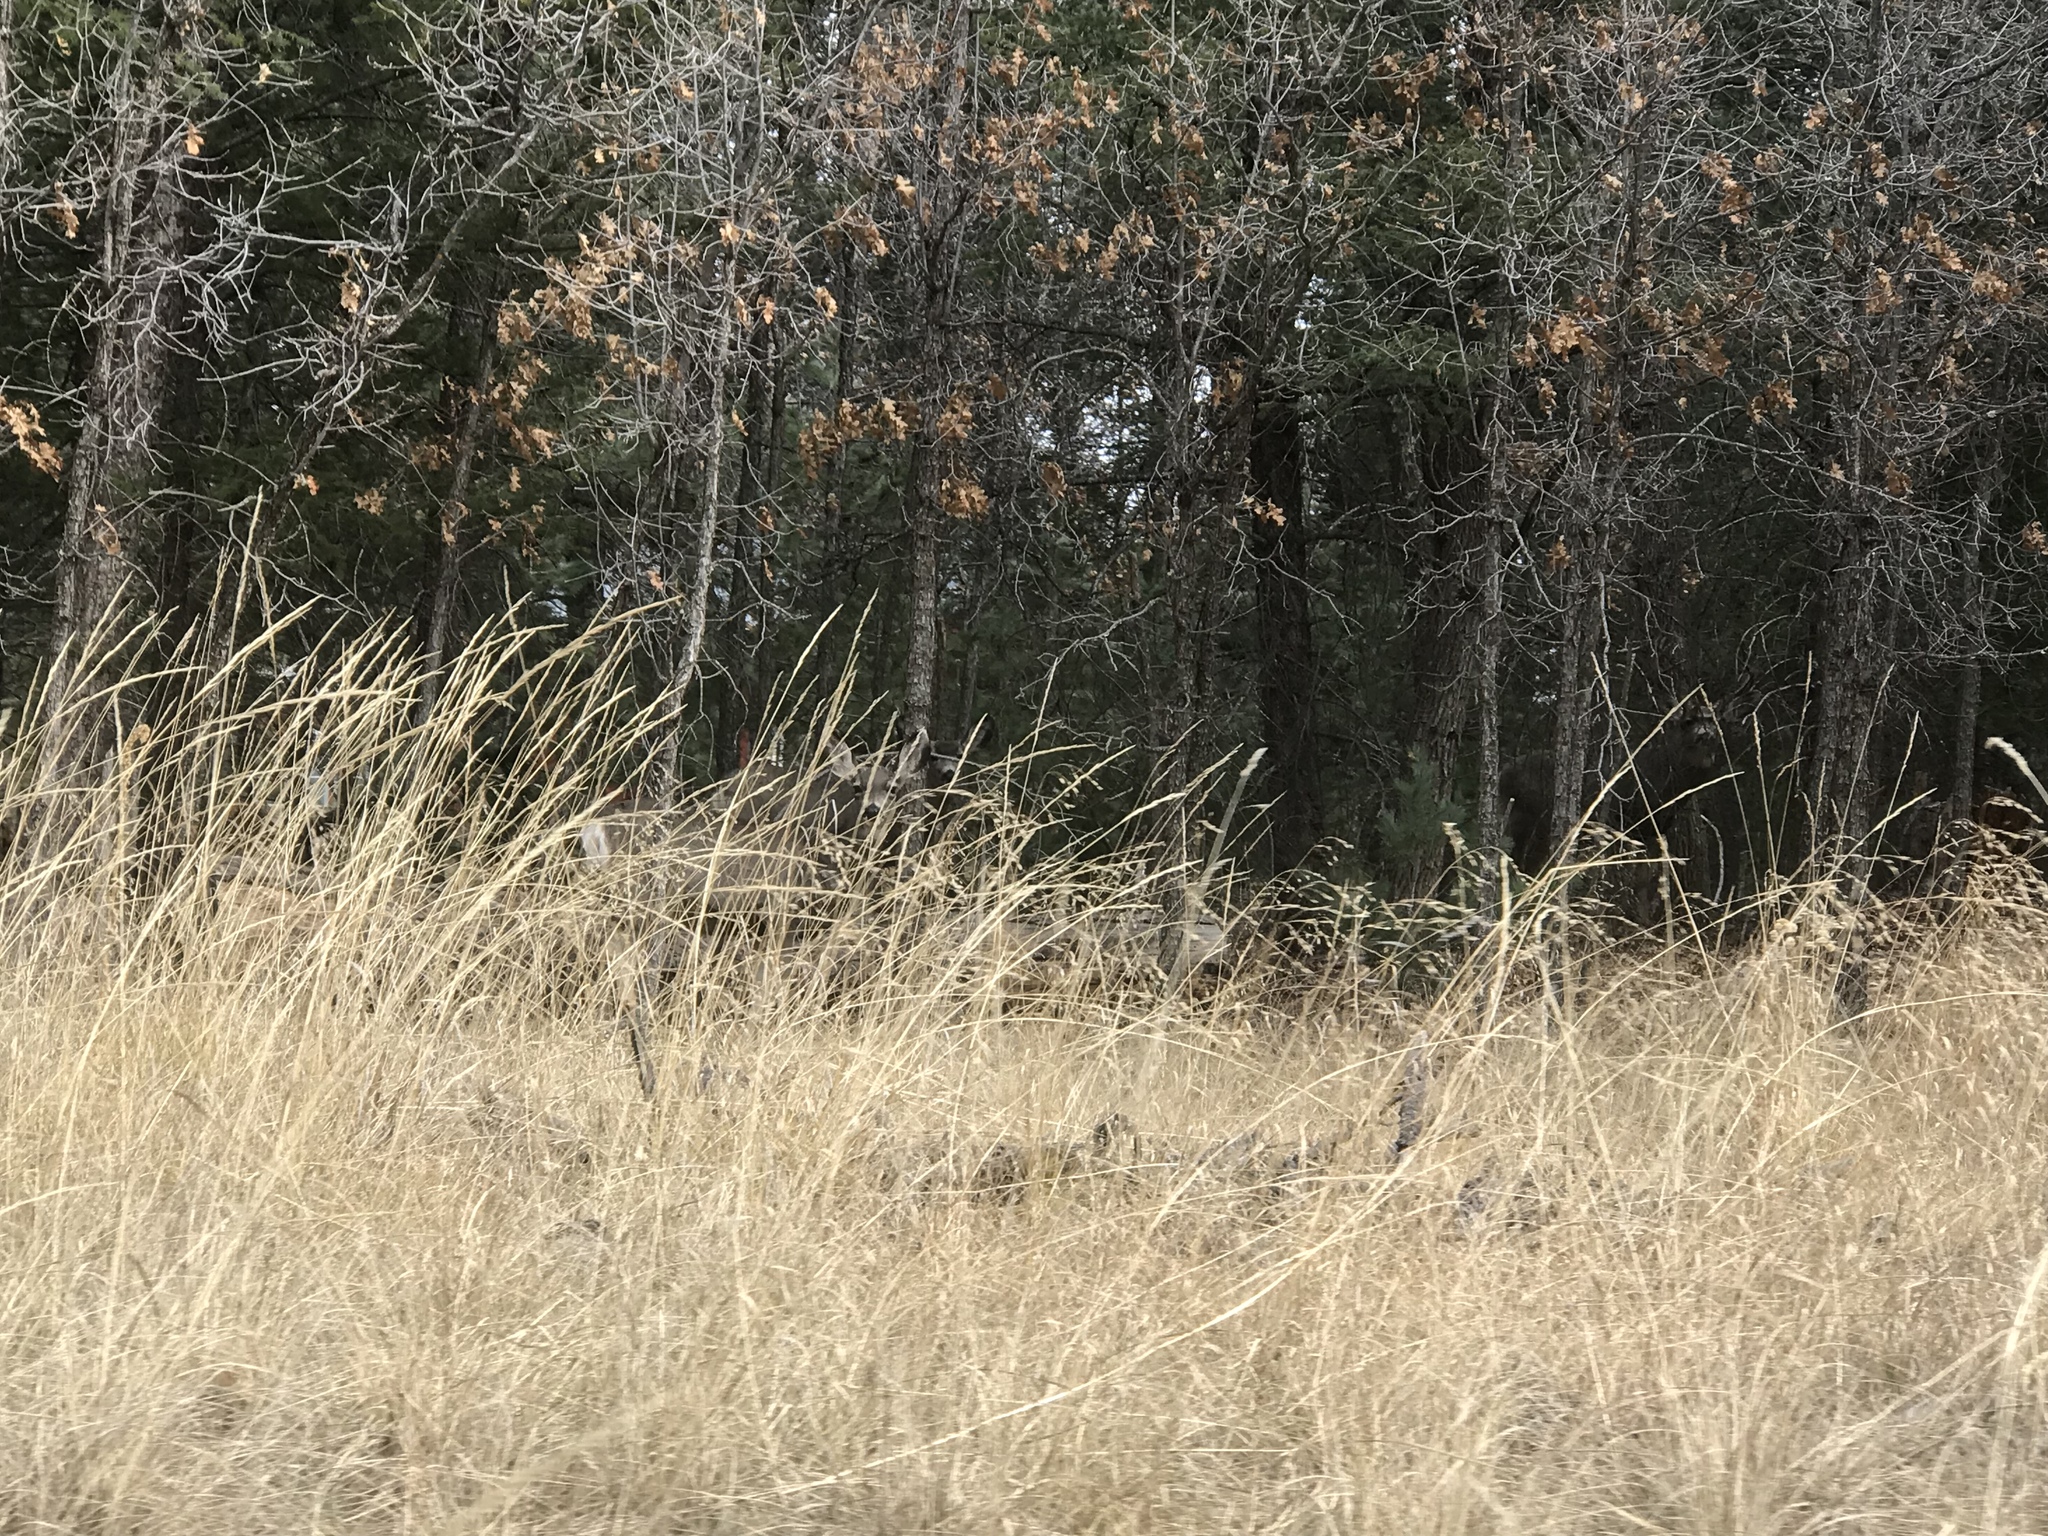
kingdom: Animalia
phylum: Chordata
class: Mammalia
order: Artiodactyla
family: Cervidae
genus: Odocoileus
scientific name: Odocoileus hemionus
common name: Mule deer
